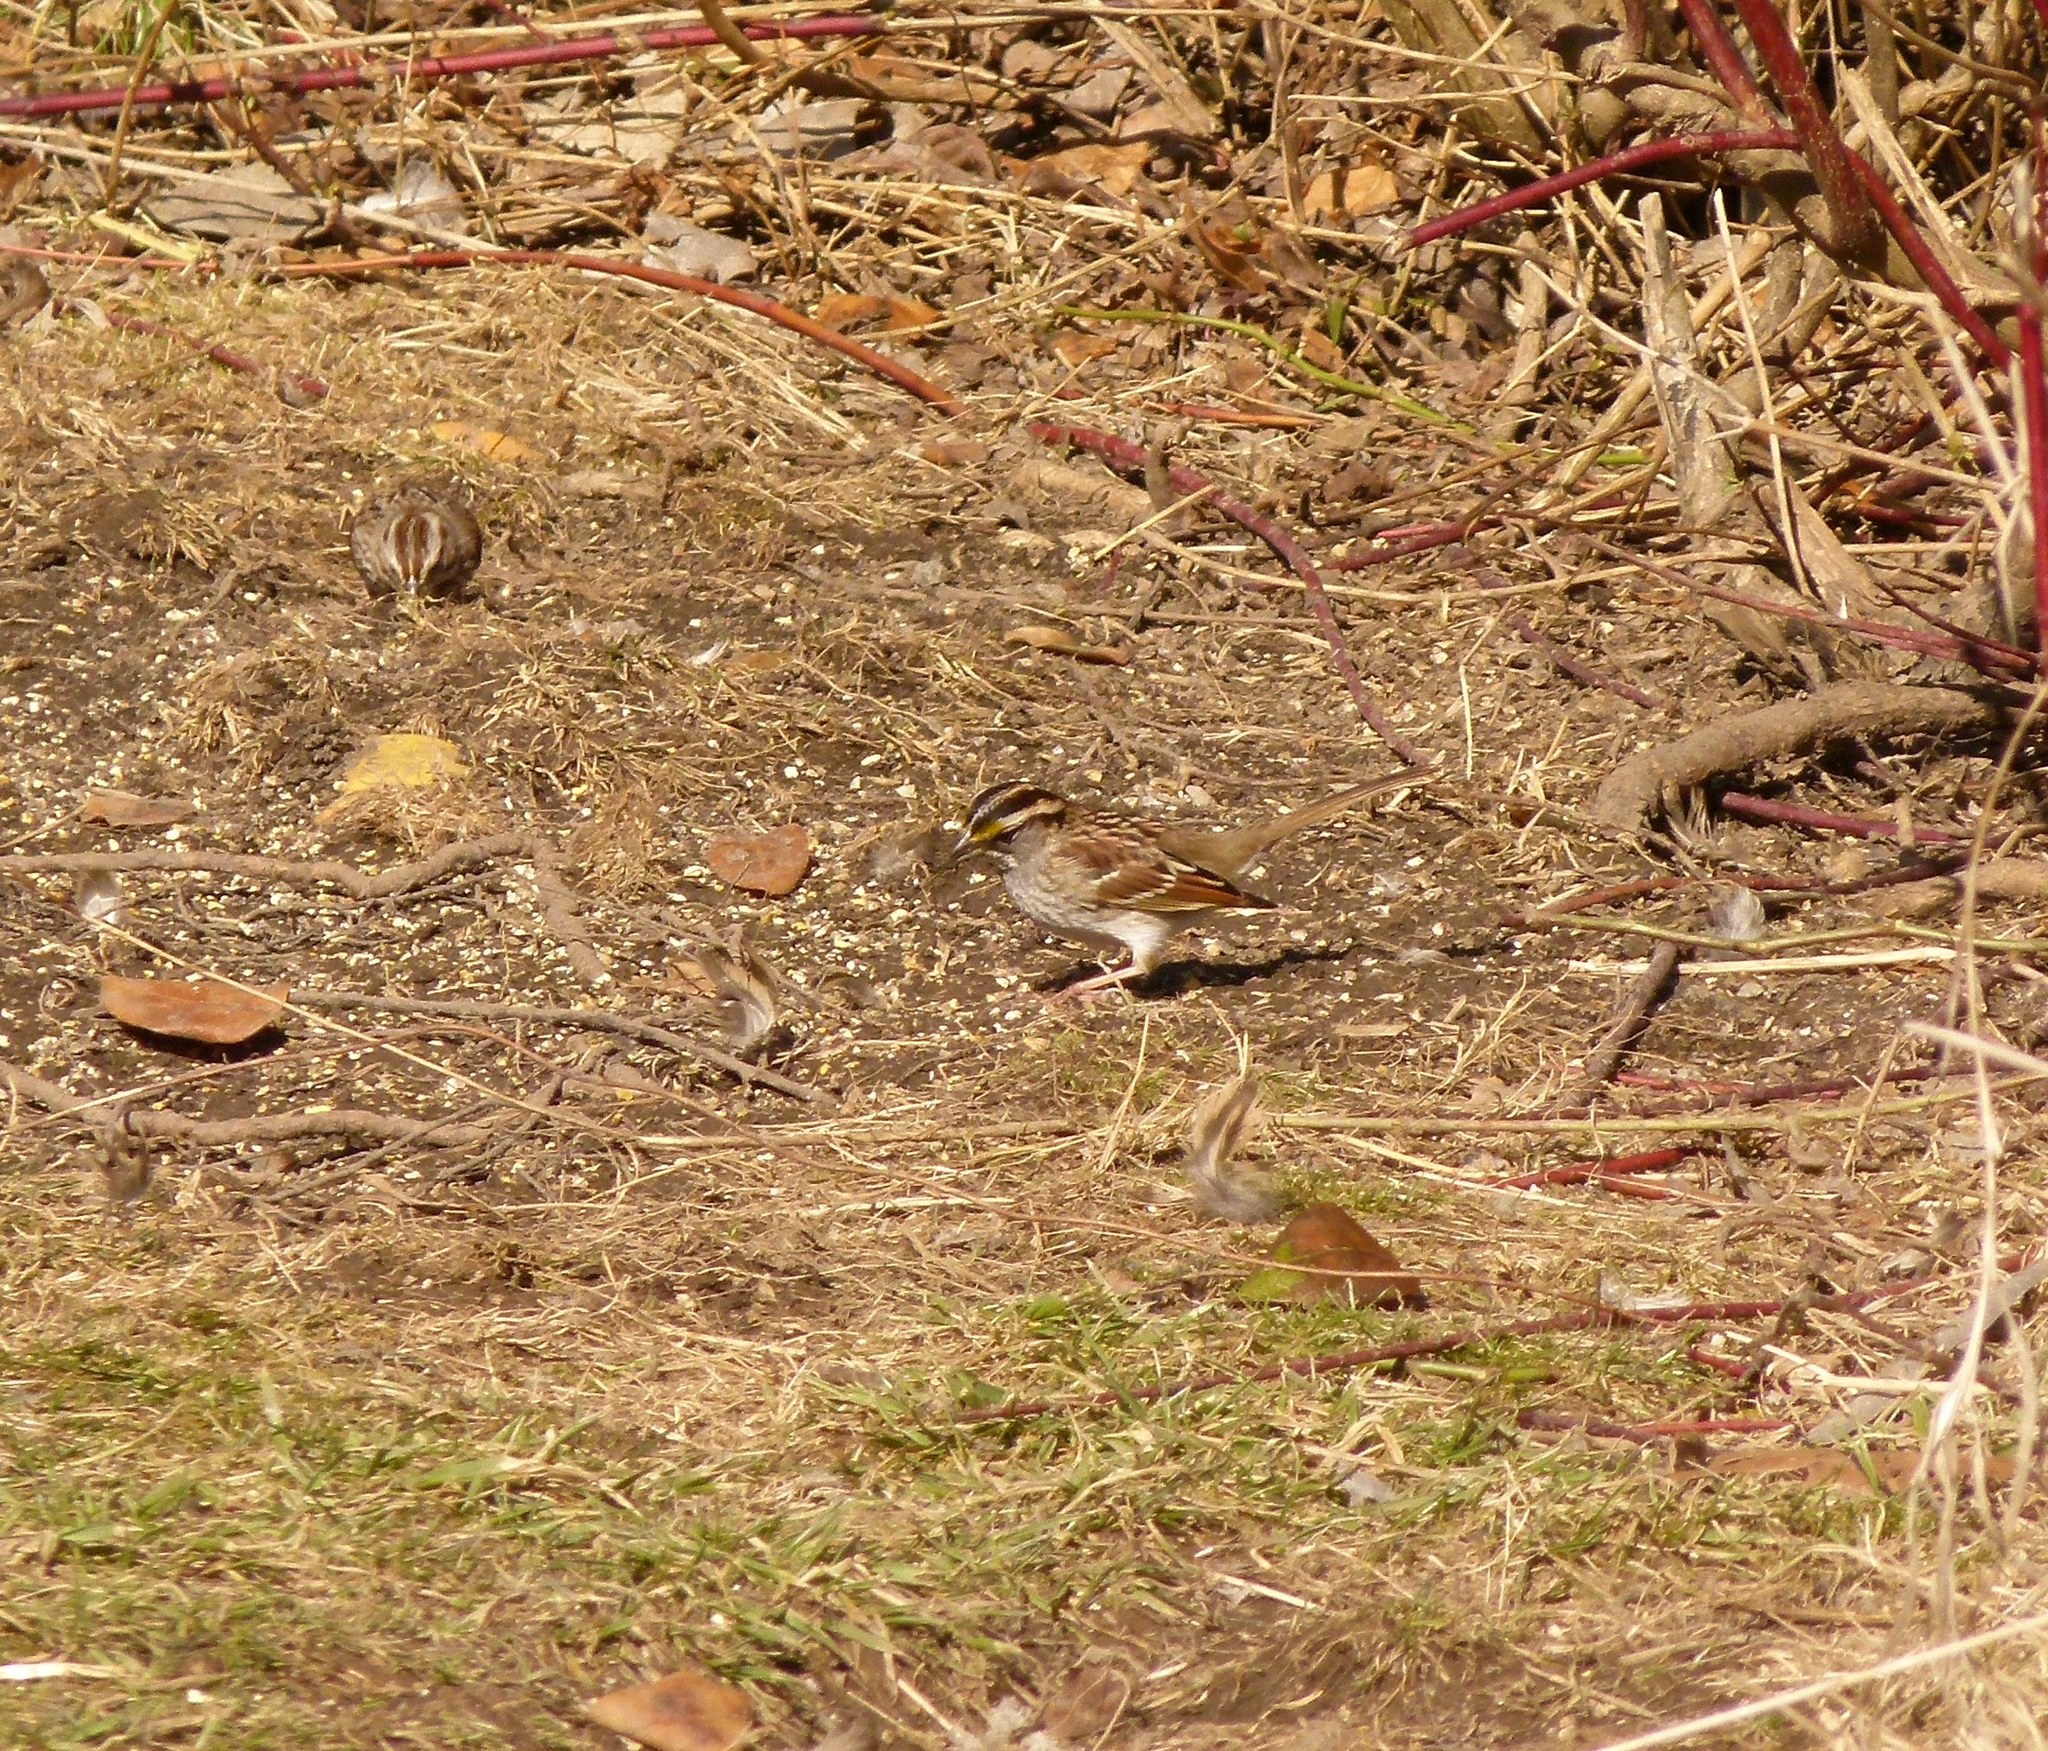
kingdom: Animalia
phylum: Chordata
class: Aves
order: Passeriformes
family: Passerellidae
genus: Zonotrichia
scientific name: Zonotrichia albicollis
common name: White-throated sparrow
